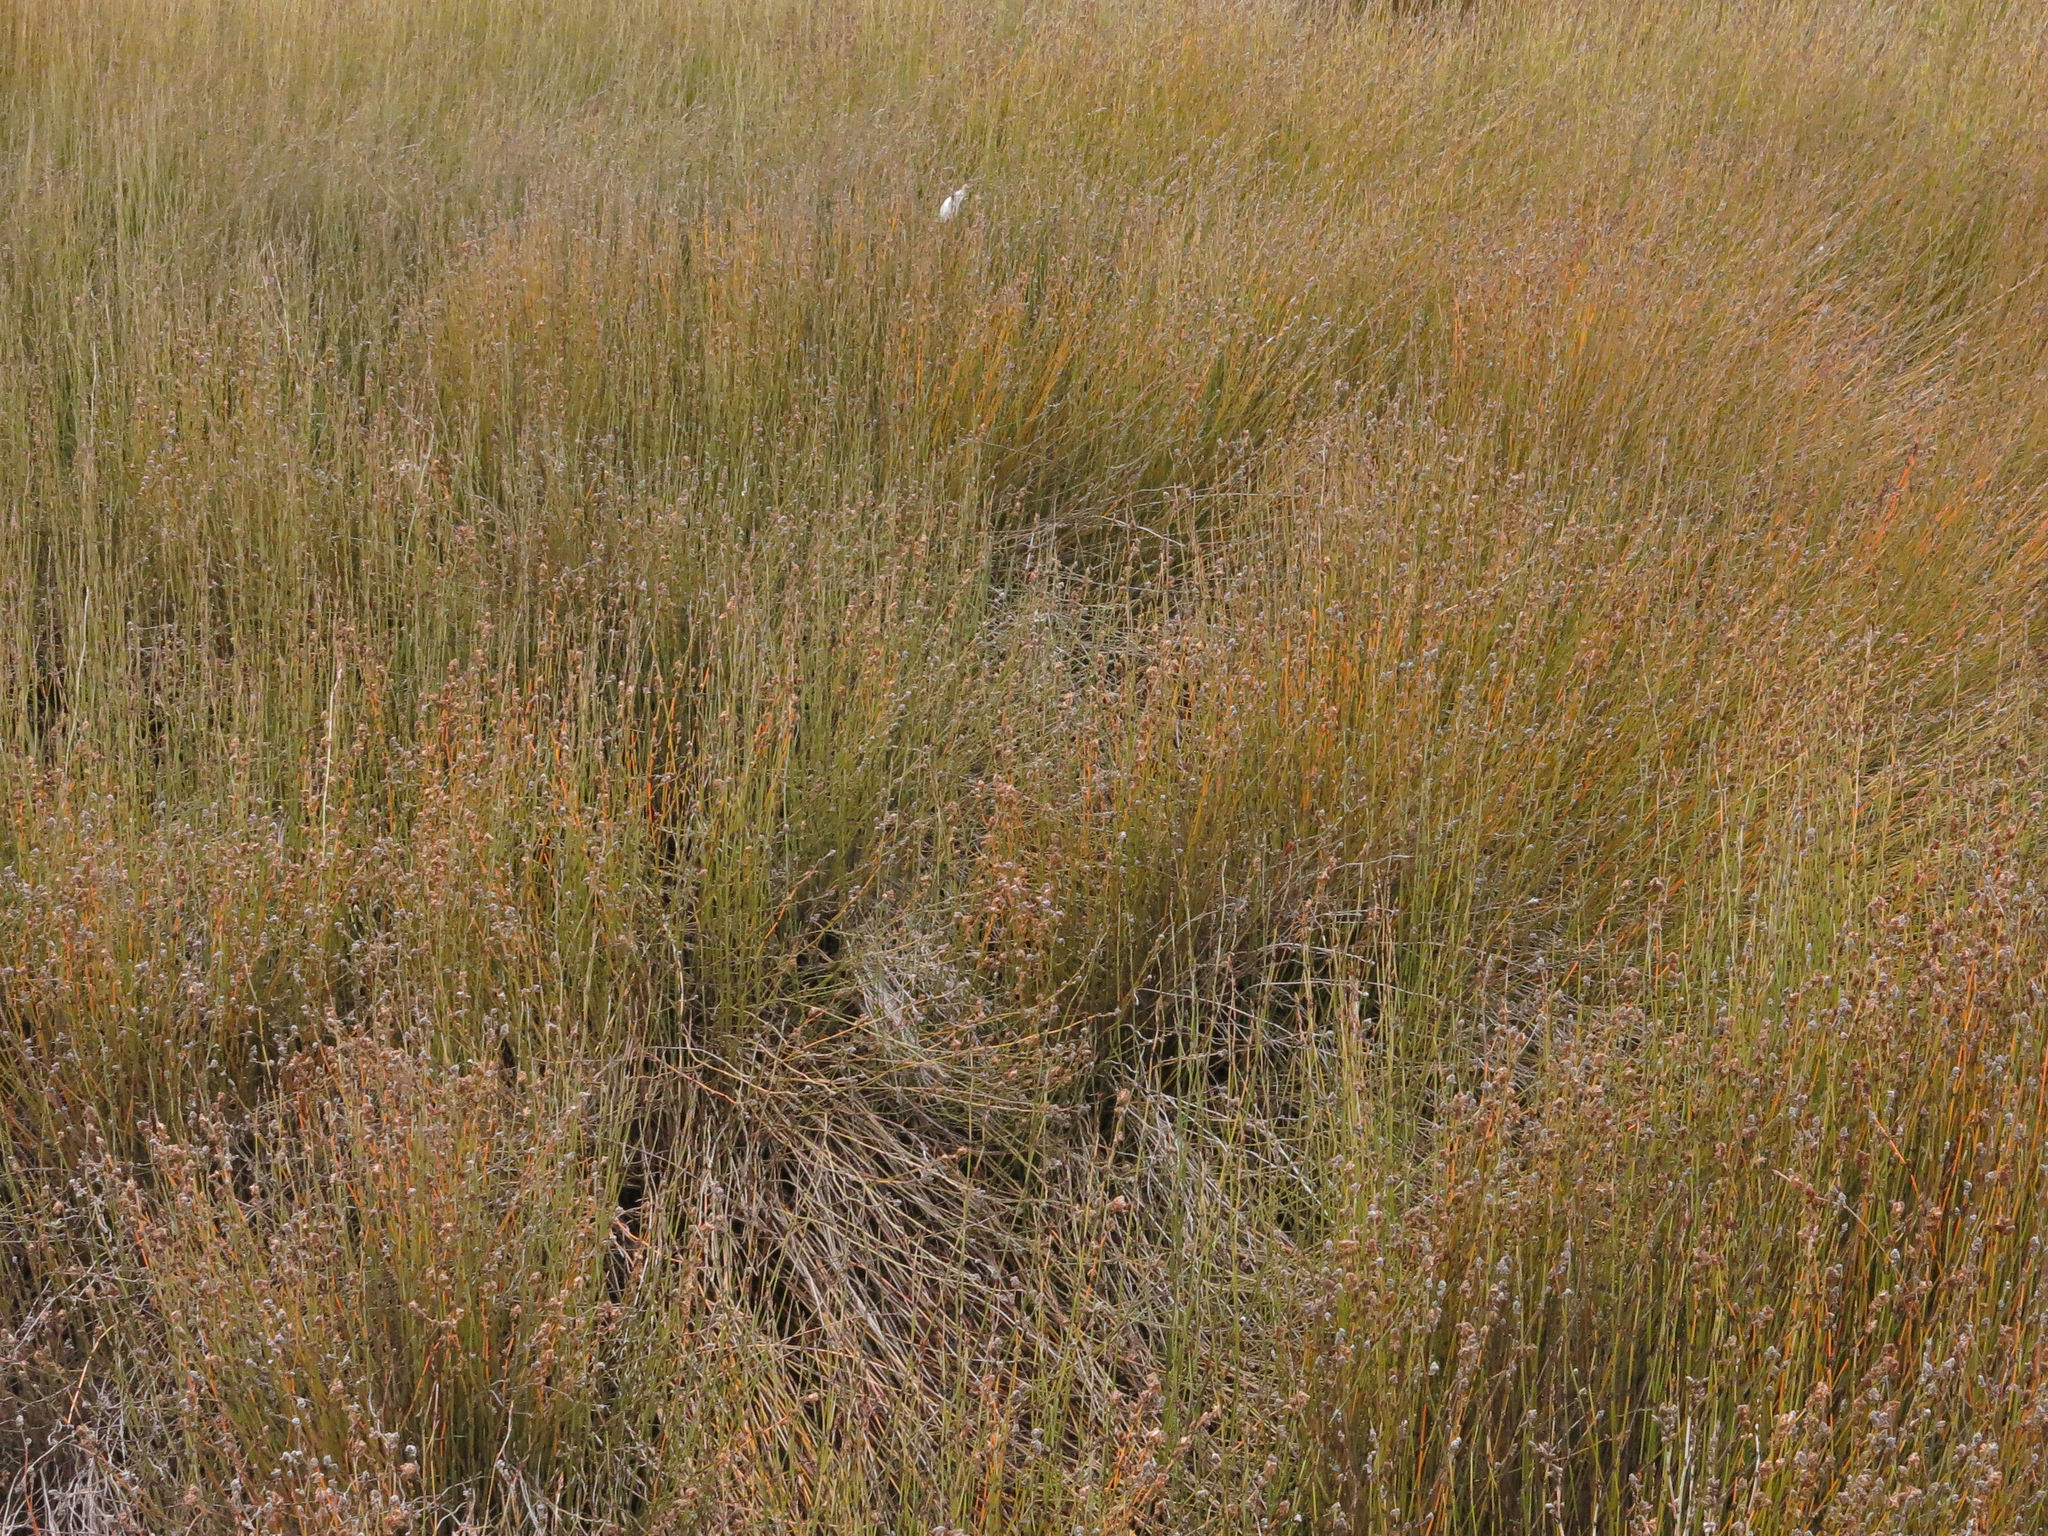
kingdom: Plantae
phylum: Tracheophyta
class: Liliopsida
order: Poales
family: Restionaceae
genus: Apodasmia
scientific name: Apodasmia similis
